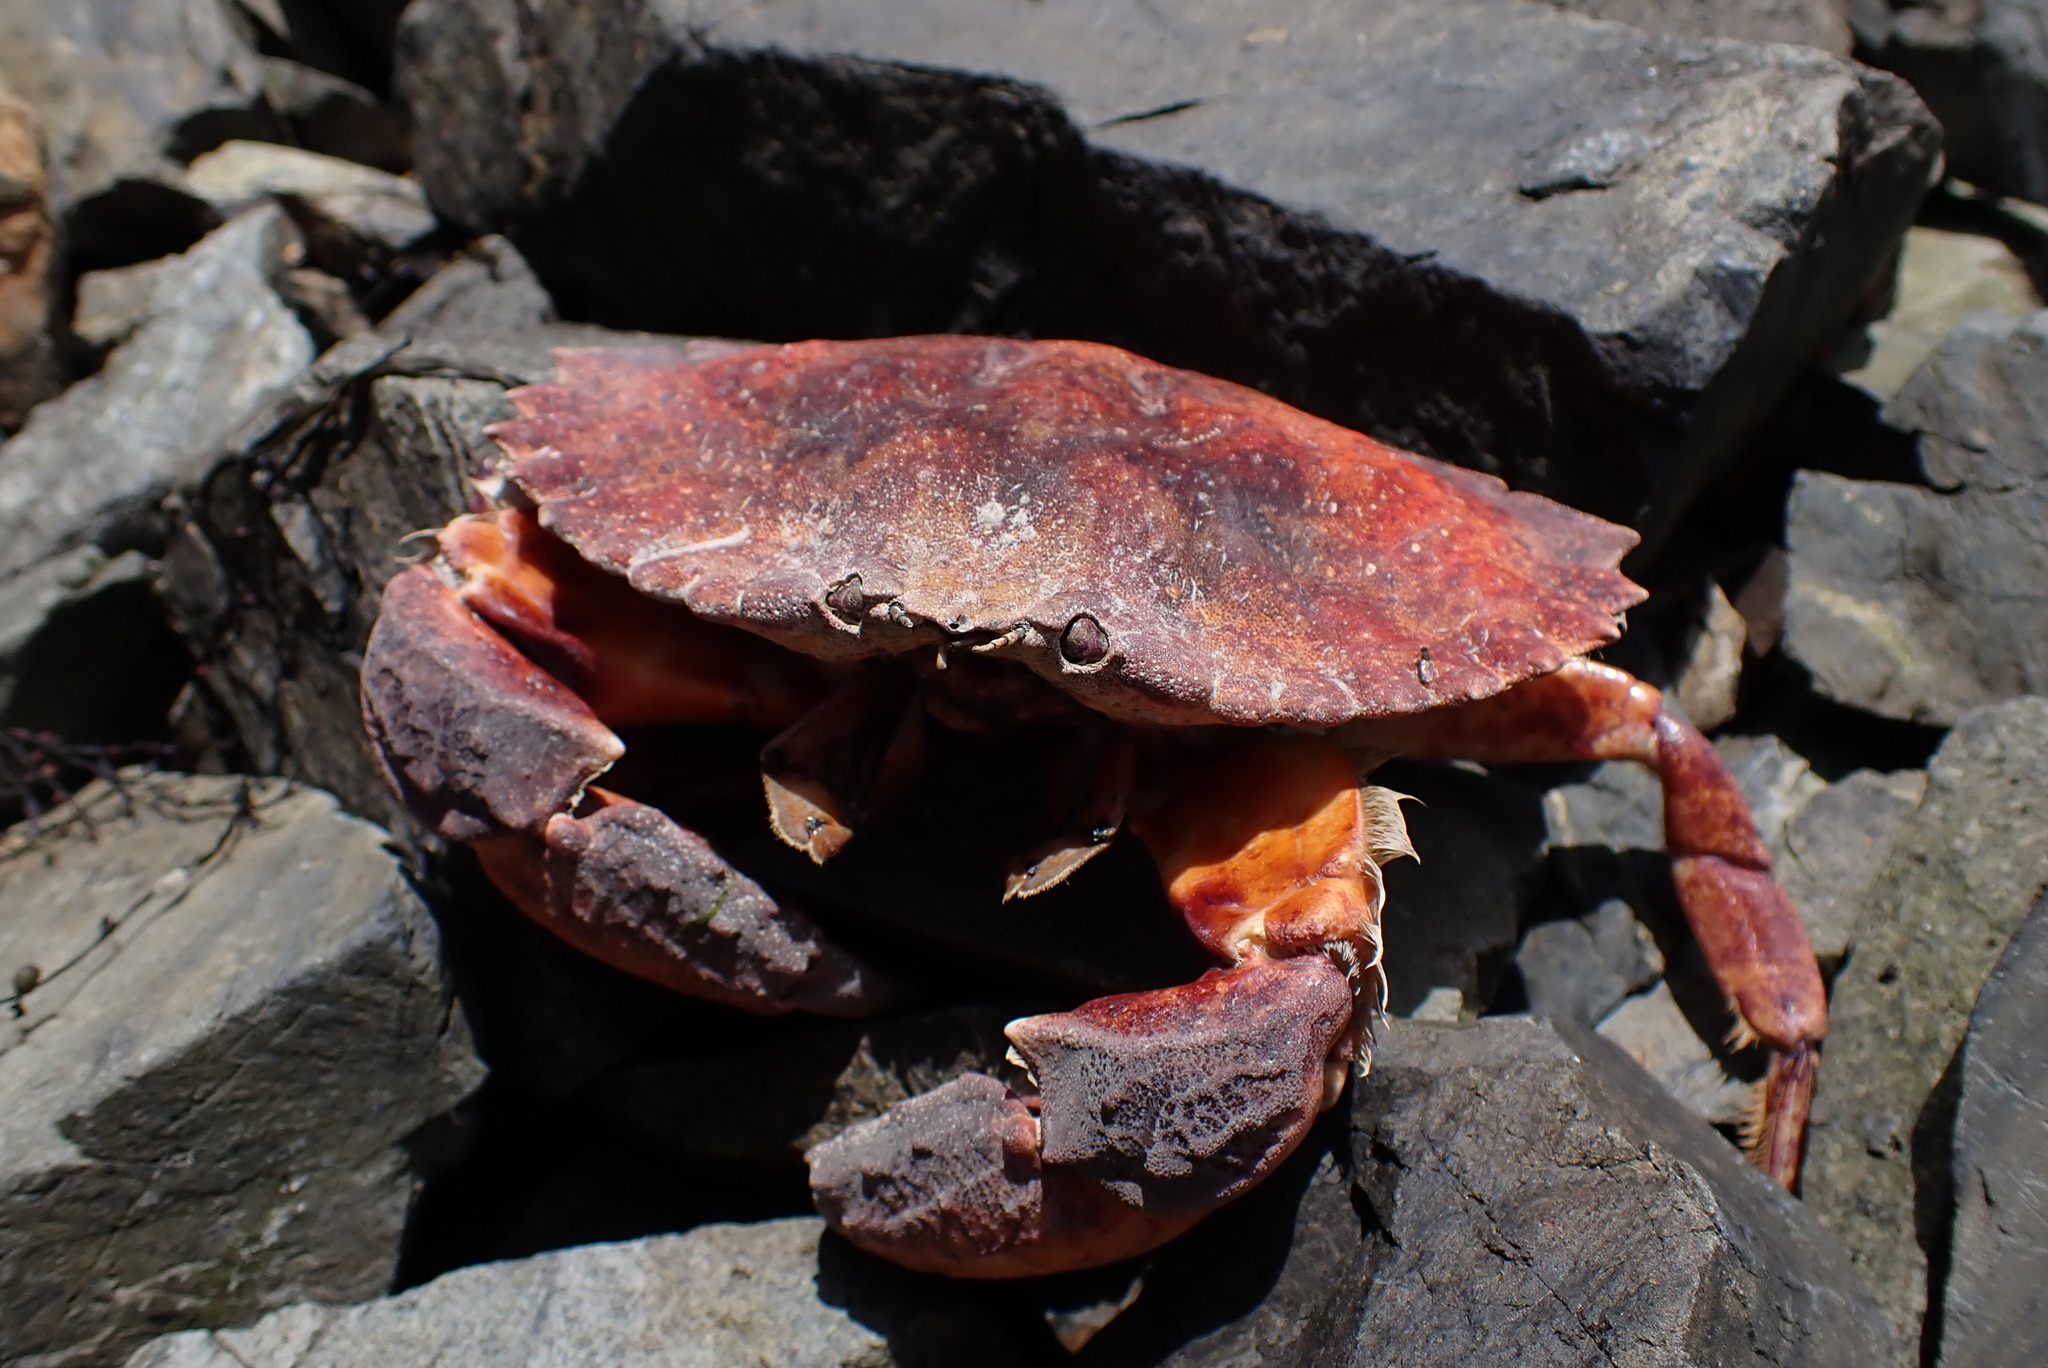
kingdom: Animalia
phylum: Arthropoda
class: Malacostraca
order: Decapoda
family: Cancridae
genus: Cancer
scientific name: Cancer productus
